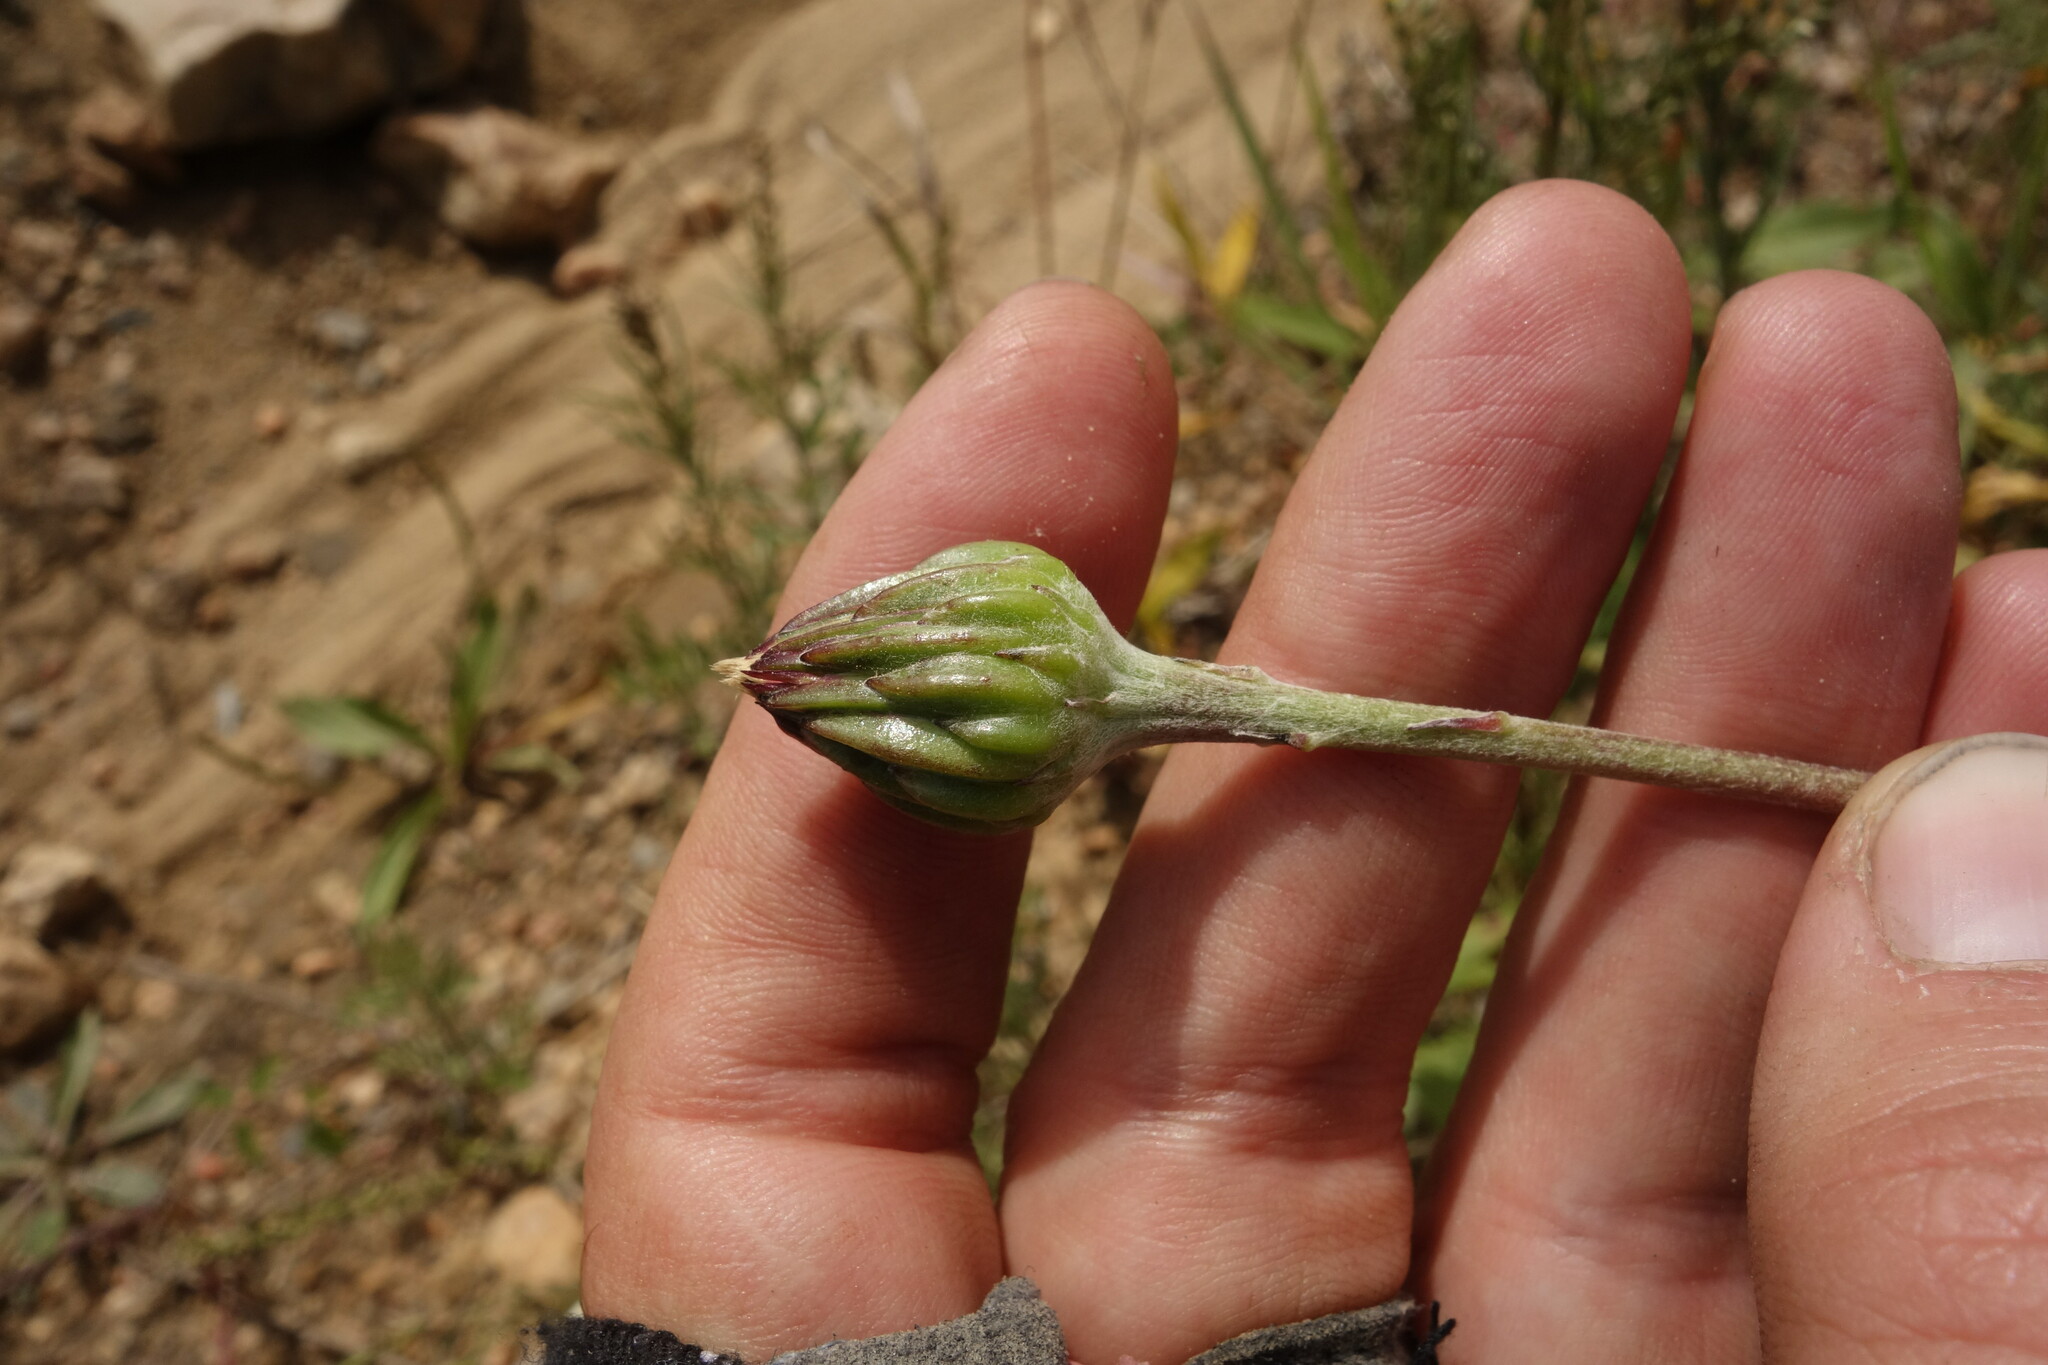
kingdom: Plantae
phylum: Tracheophyta
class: Magnoliopsida
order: Asterales
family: Asteraceae
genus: Leibnitzia
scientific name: Leibnitzia anandria
